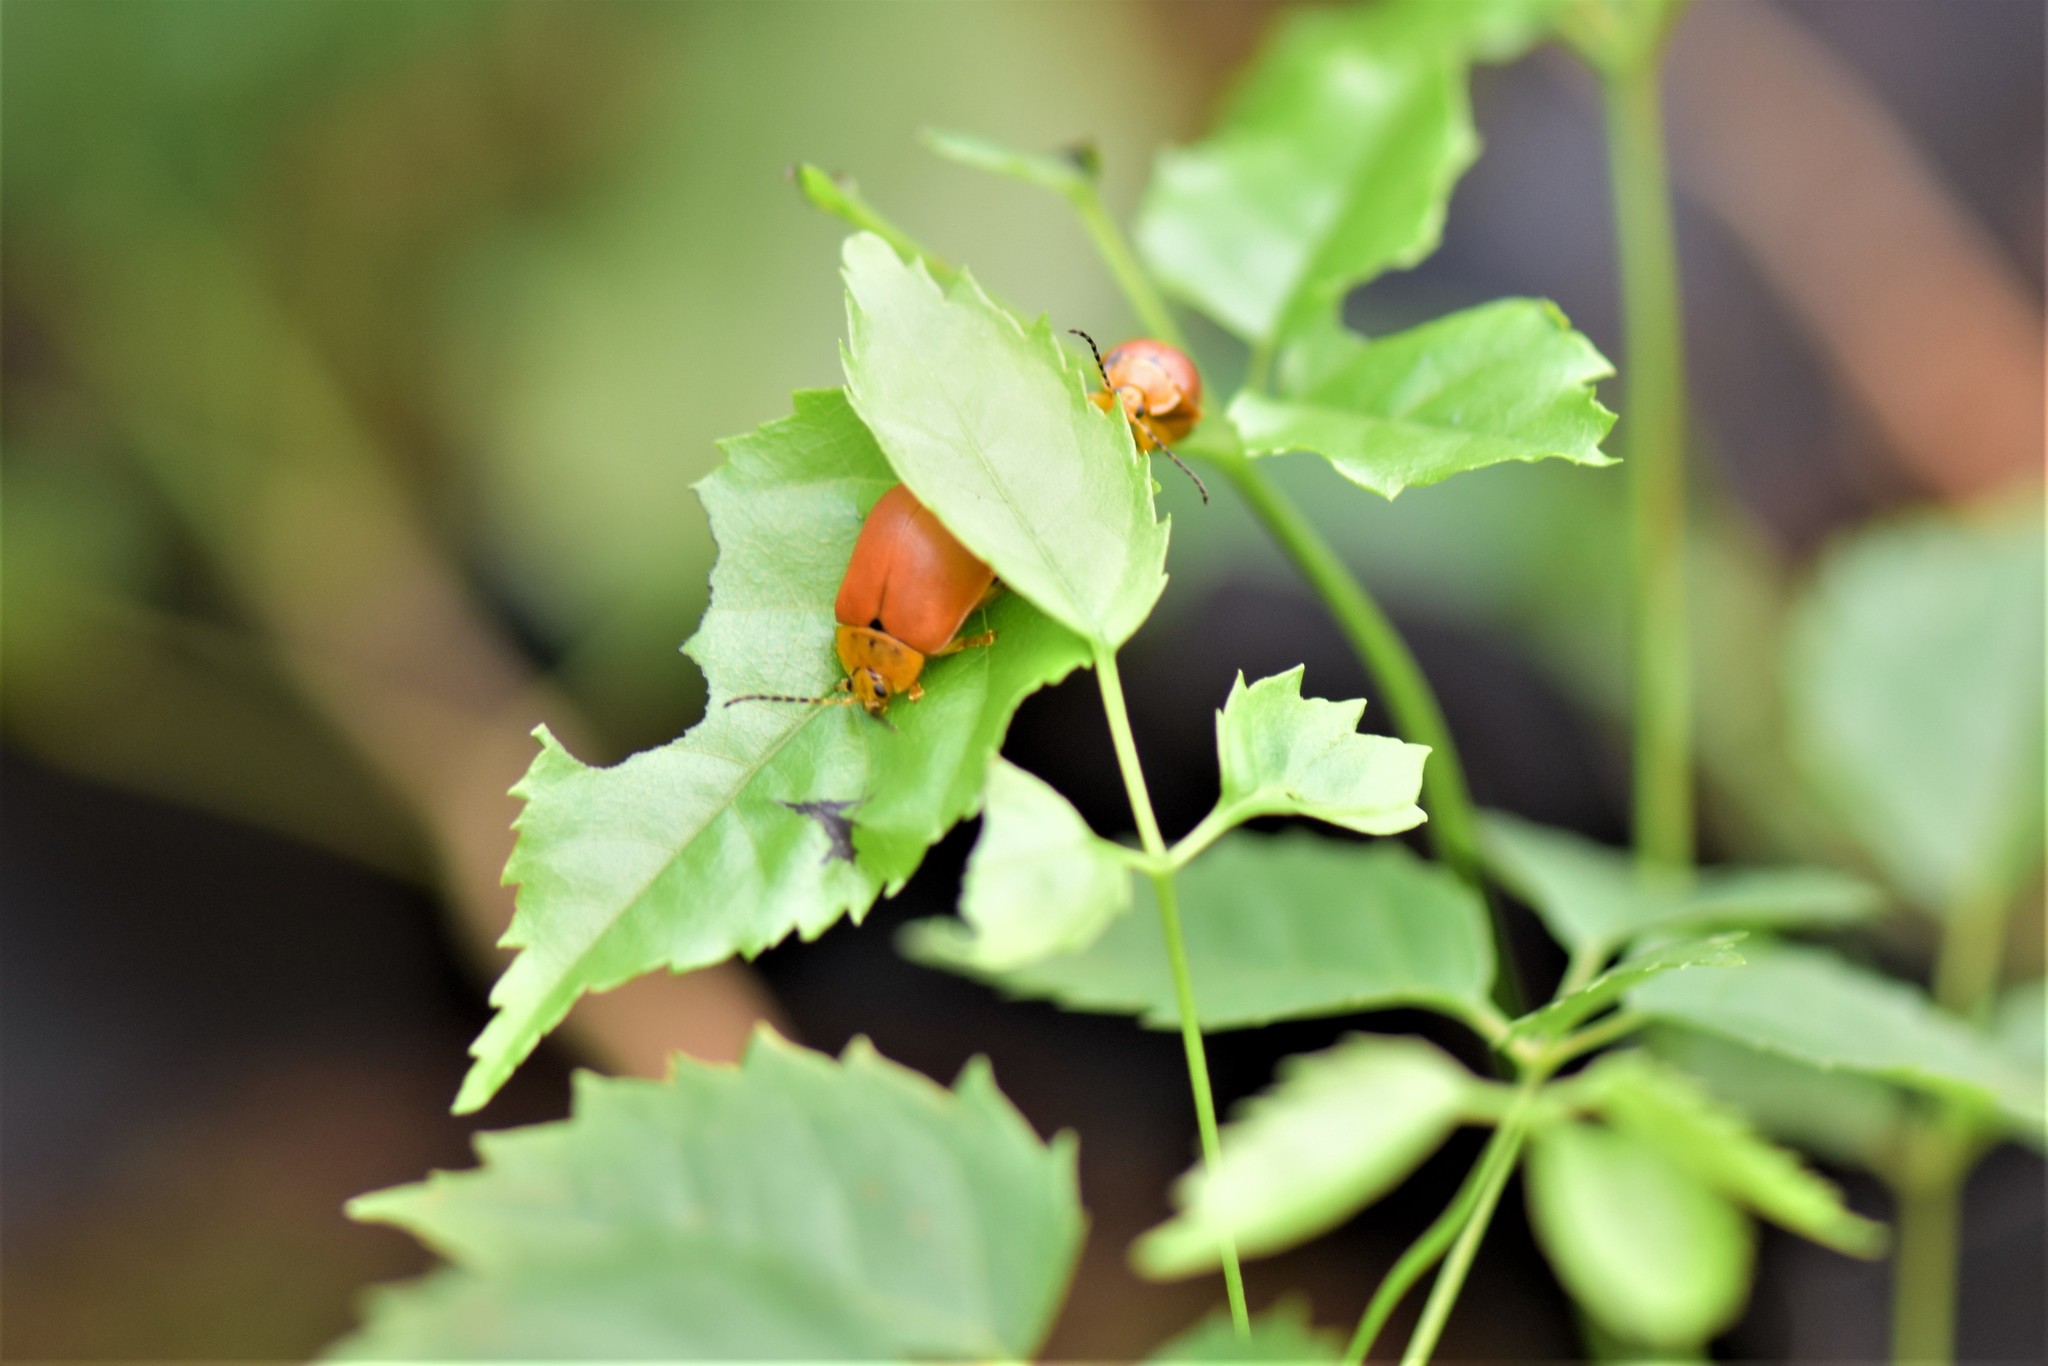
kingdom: Animalia
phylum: Arthropoda
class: Insecta
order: Coleoptera
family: Chrysomelidae
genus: Paranaita
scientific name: Paranaita
